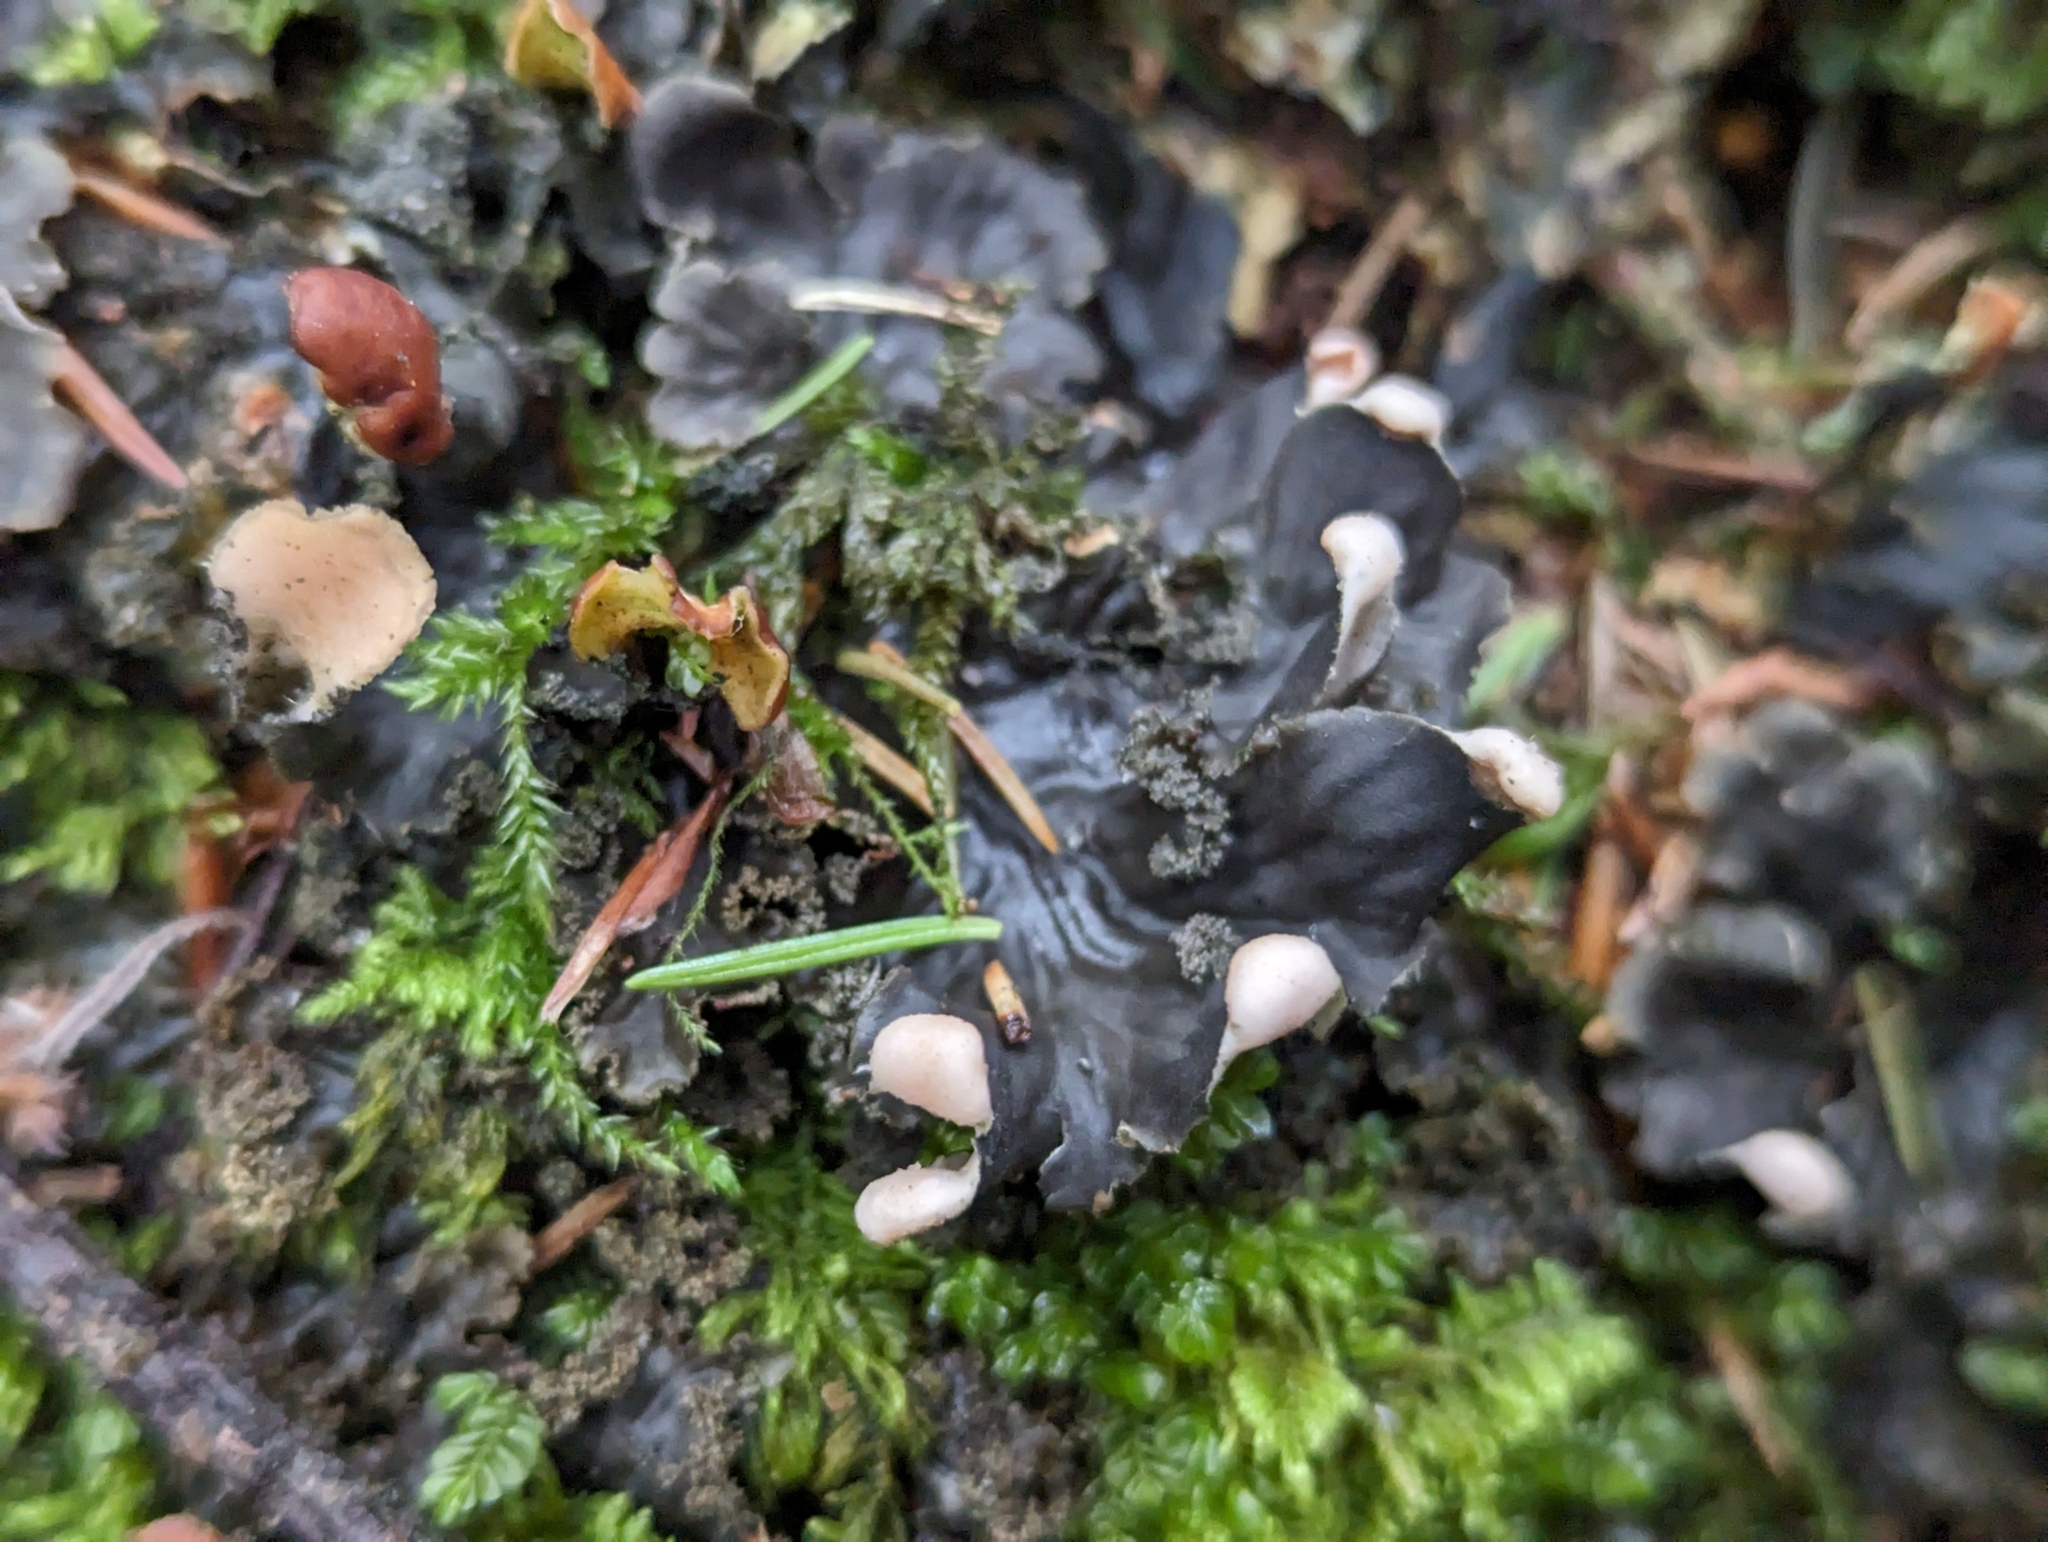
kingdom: Fungi
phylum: Ascomycota
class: Lecanoromycetes
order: Peltigerales
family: Peltigeraceae
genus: Peltigera
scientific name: Peltigera praetextata
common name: Scaly dog-lichen
